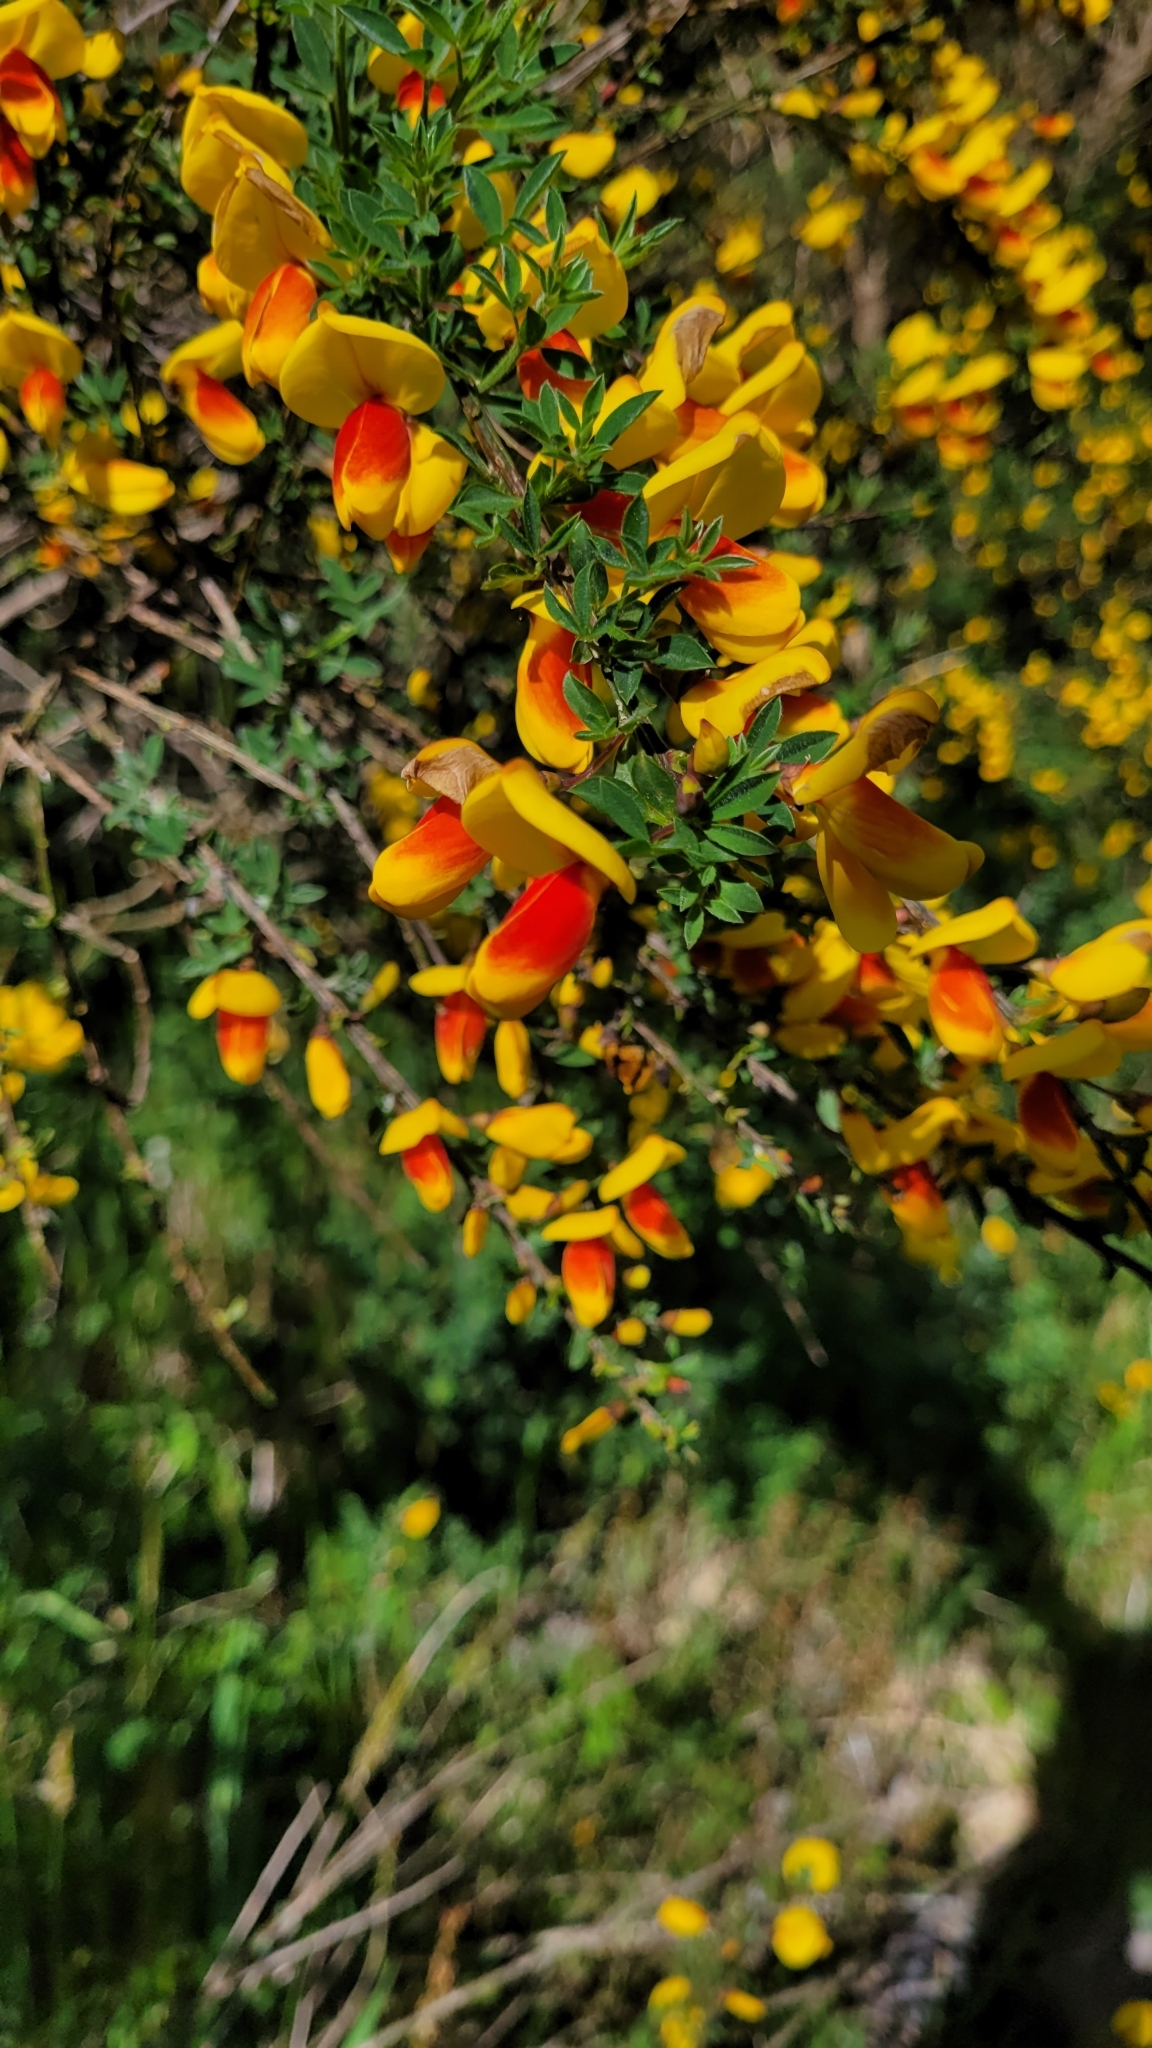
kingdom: Plantae
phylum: Tracheophyta
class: Magnoliopsida
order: Fabales
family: Fabaceae
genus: Cytisus
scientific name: Cytisus scoparius
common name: Scotch broom
